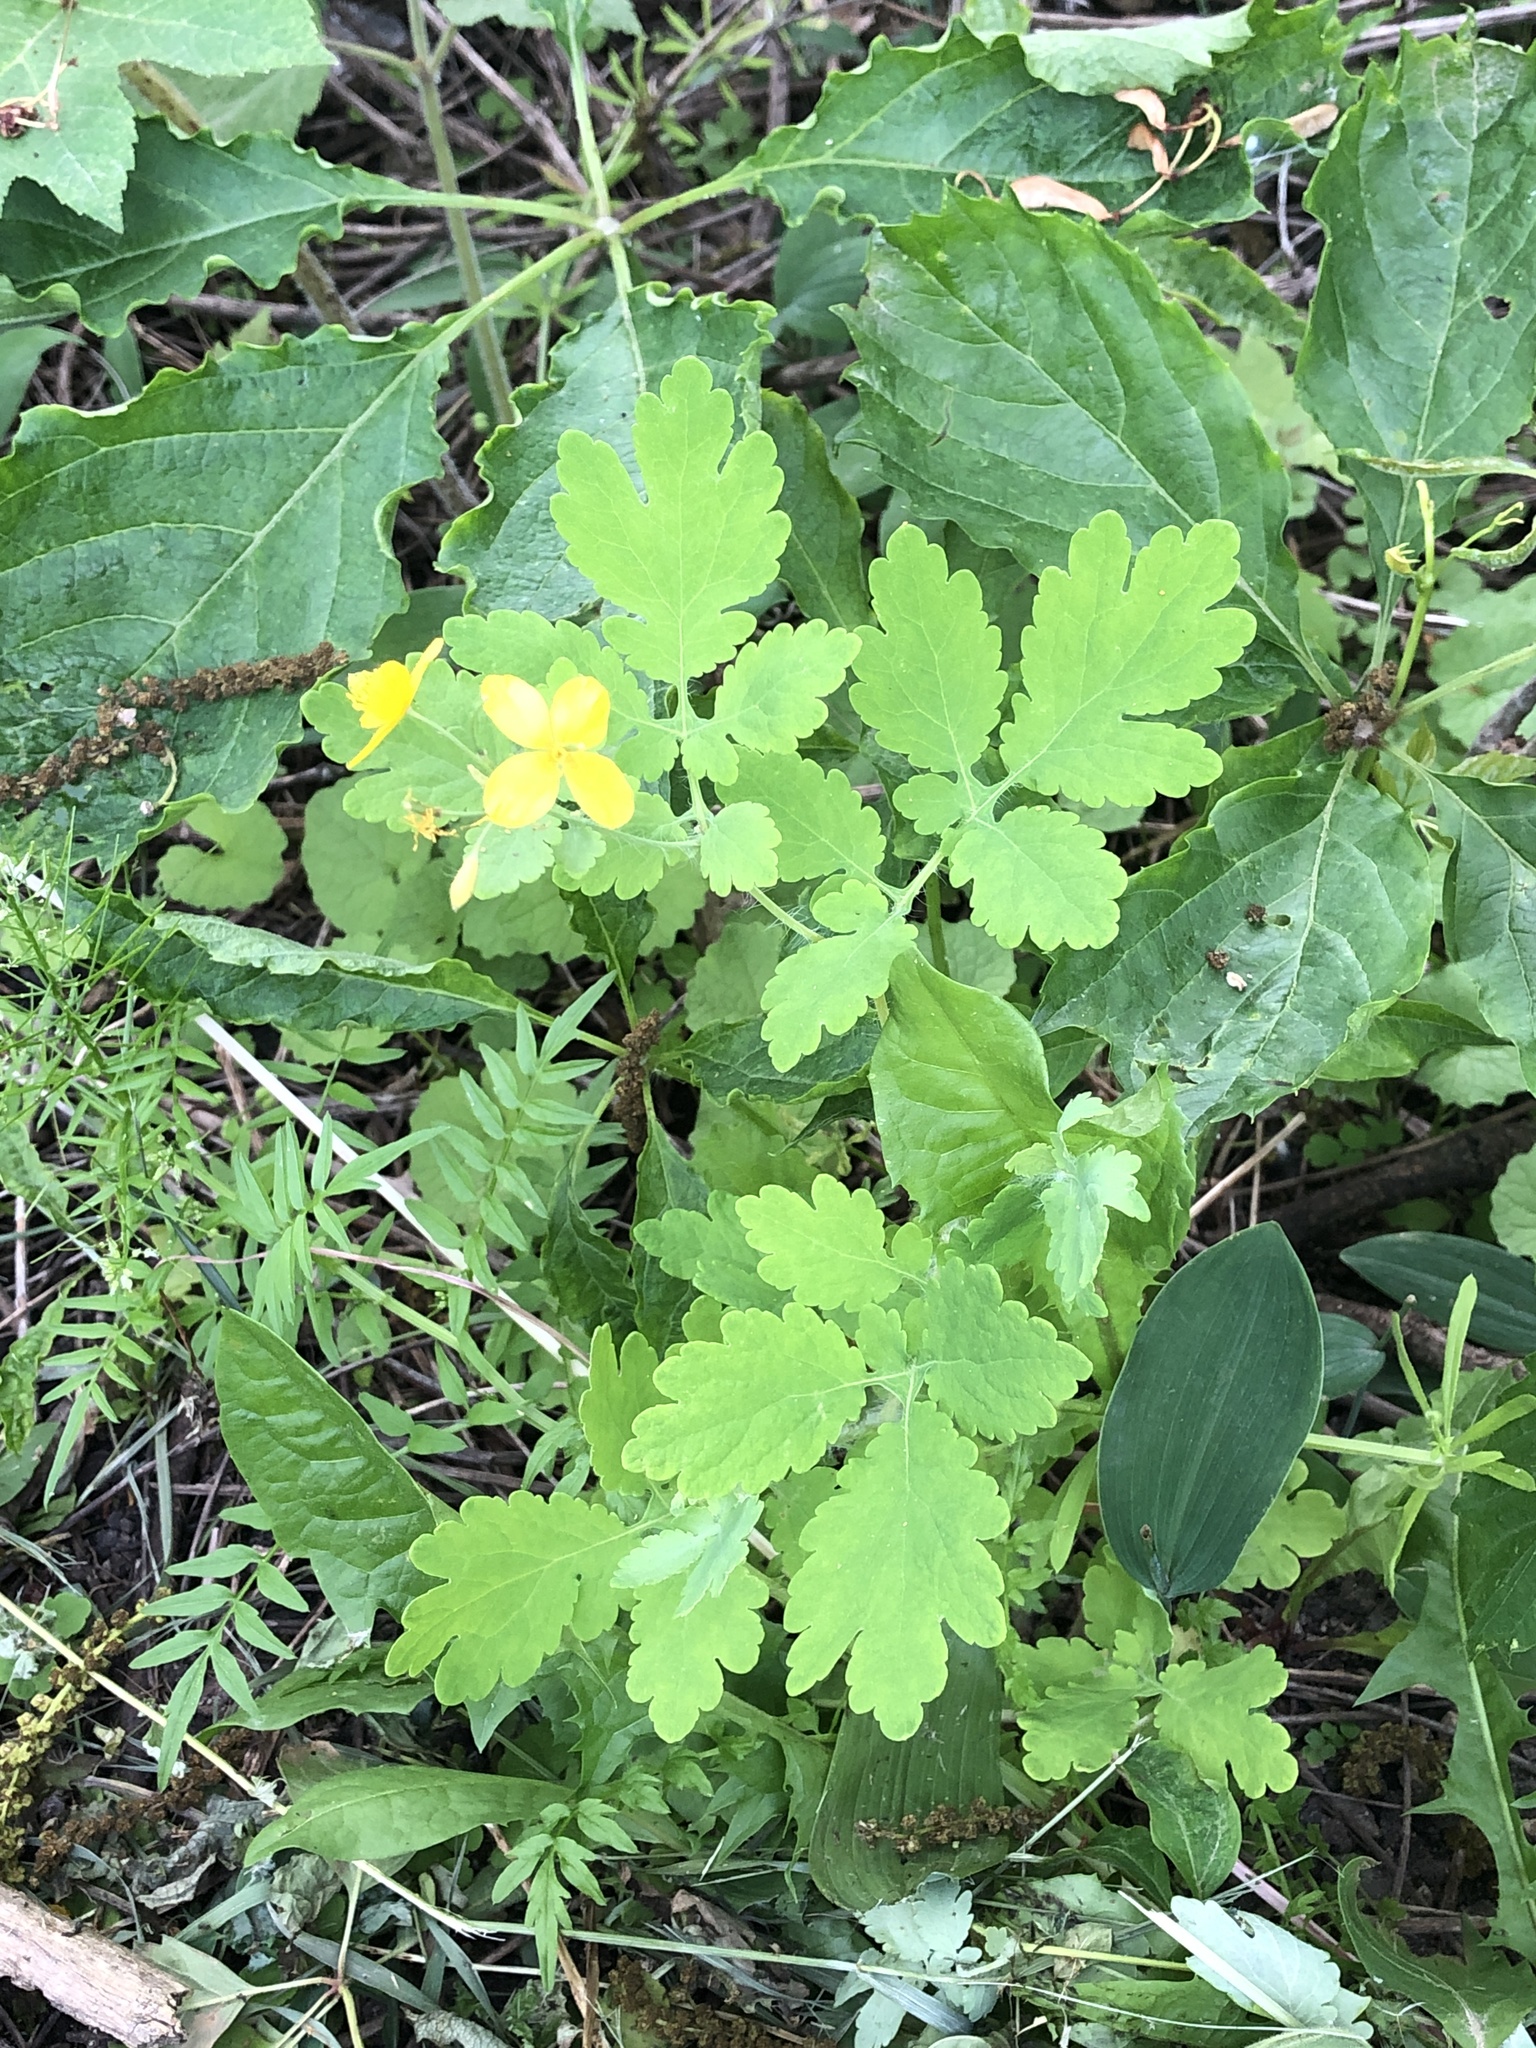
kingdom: Plantae
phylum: Tracheophyta
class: Magnoliopsida
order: Ranunculales
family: Papaveraceae
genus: Chelidonium
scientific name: Chelidonium majus
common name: Greater celandine
